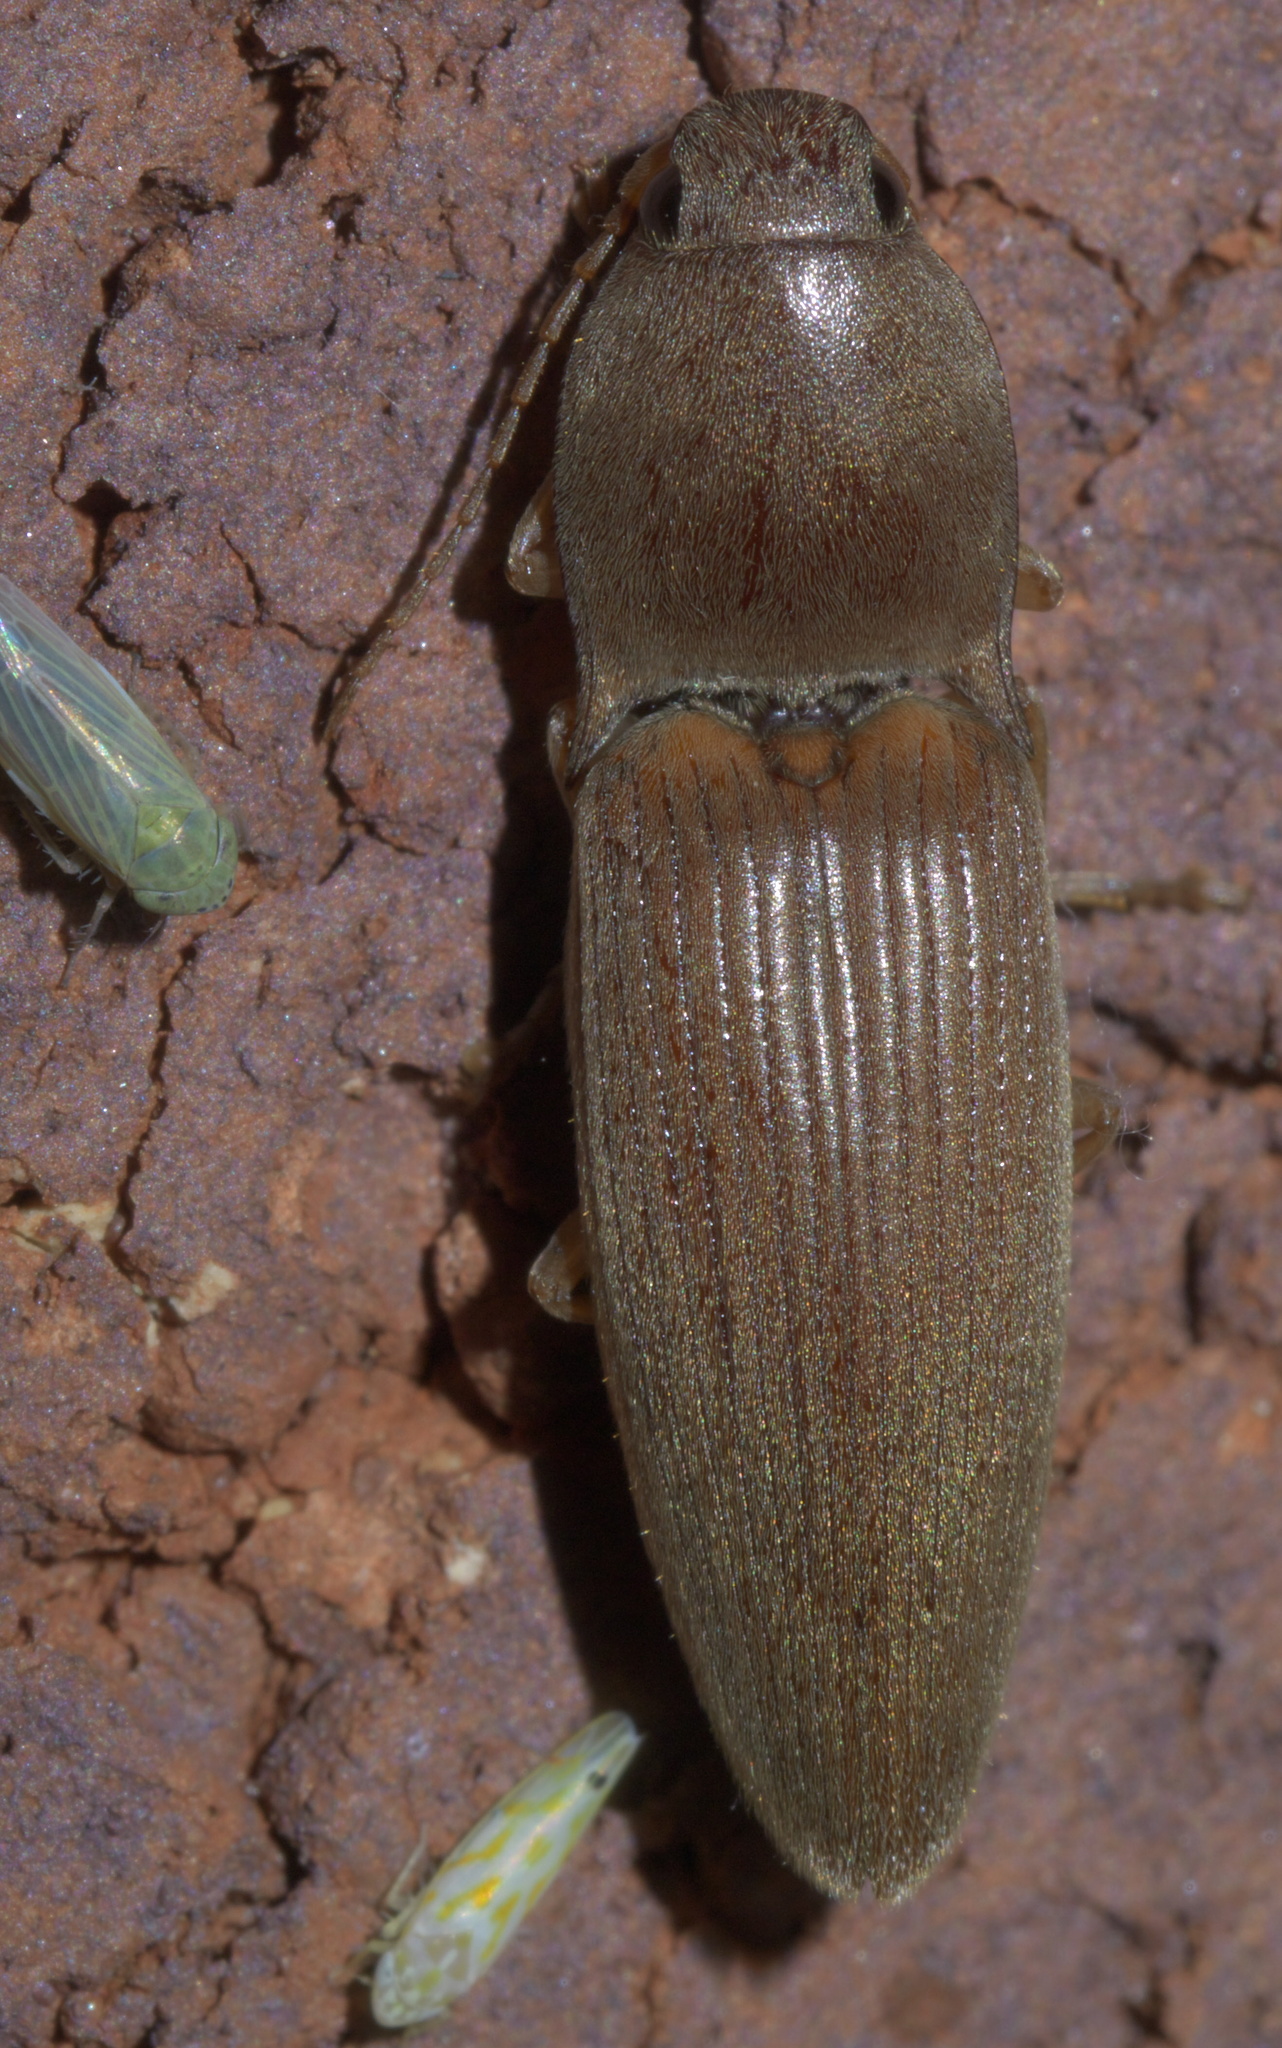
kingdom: Animalia
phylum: Arthropoda
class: Insecta
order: Coleoptera
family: Elateridae
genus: Monocrepidius
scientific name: Monocrepidius lividus
